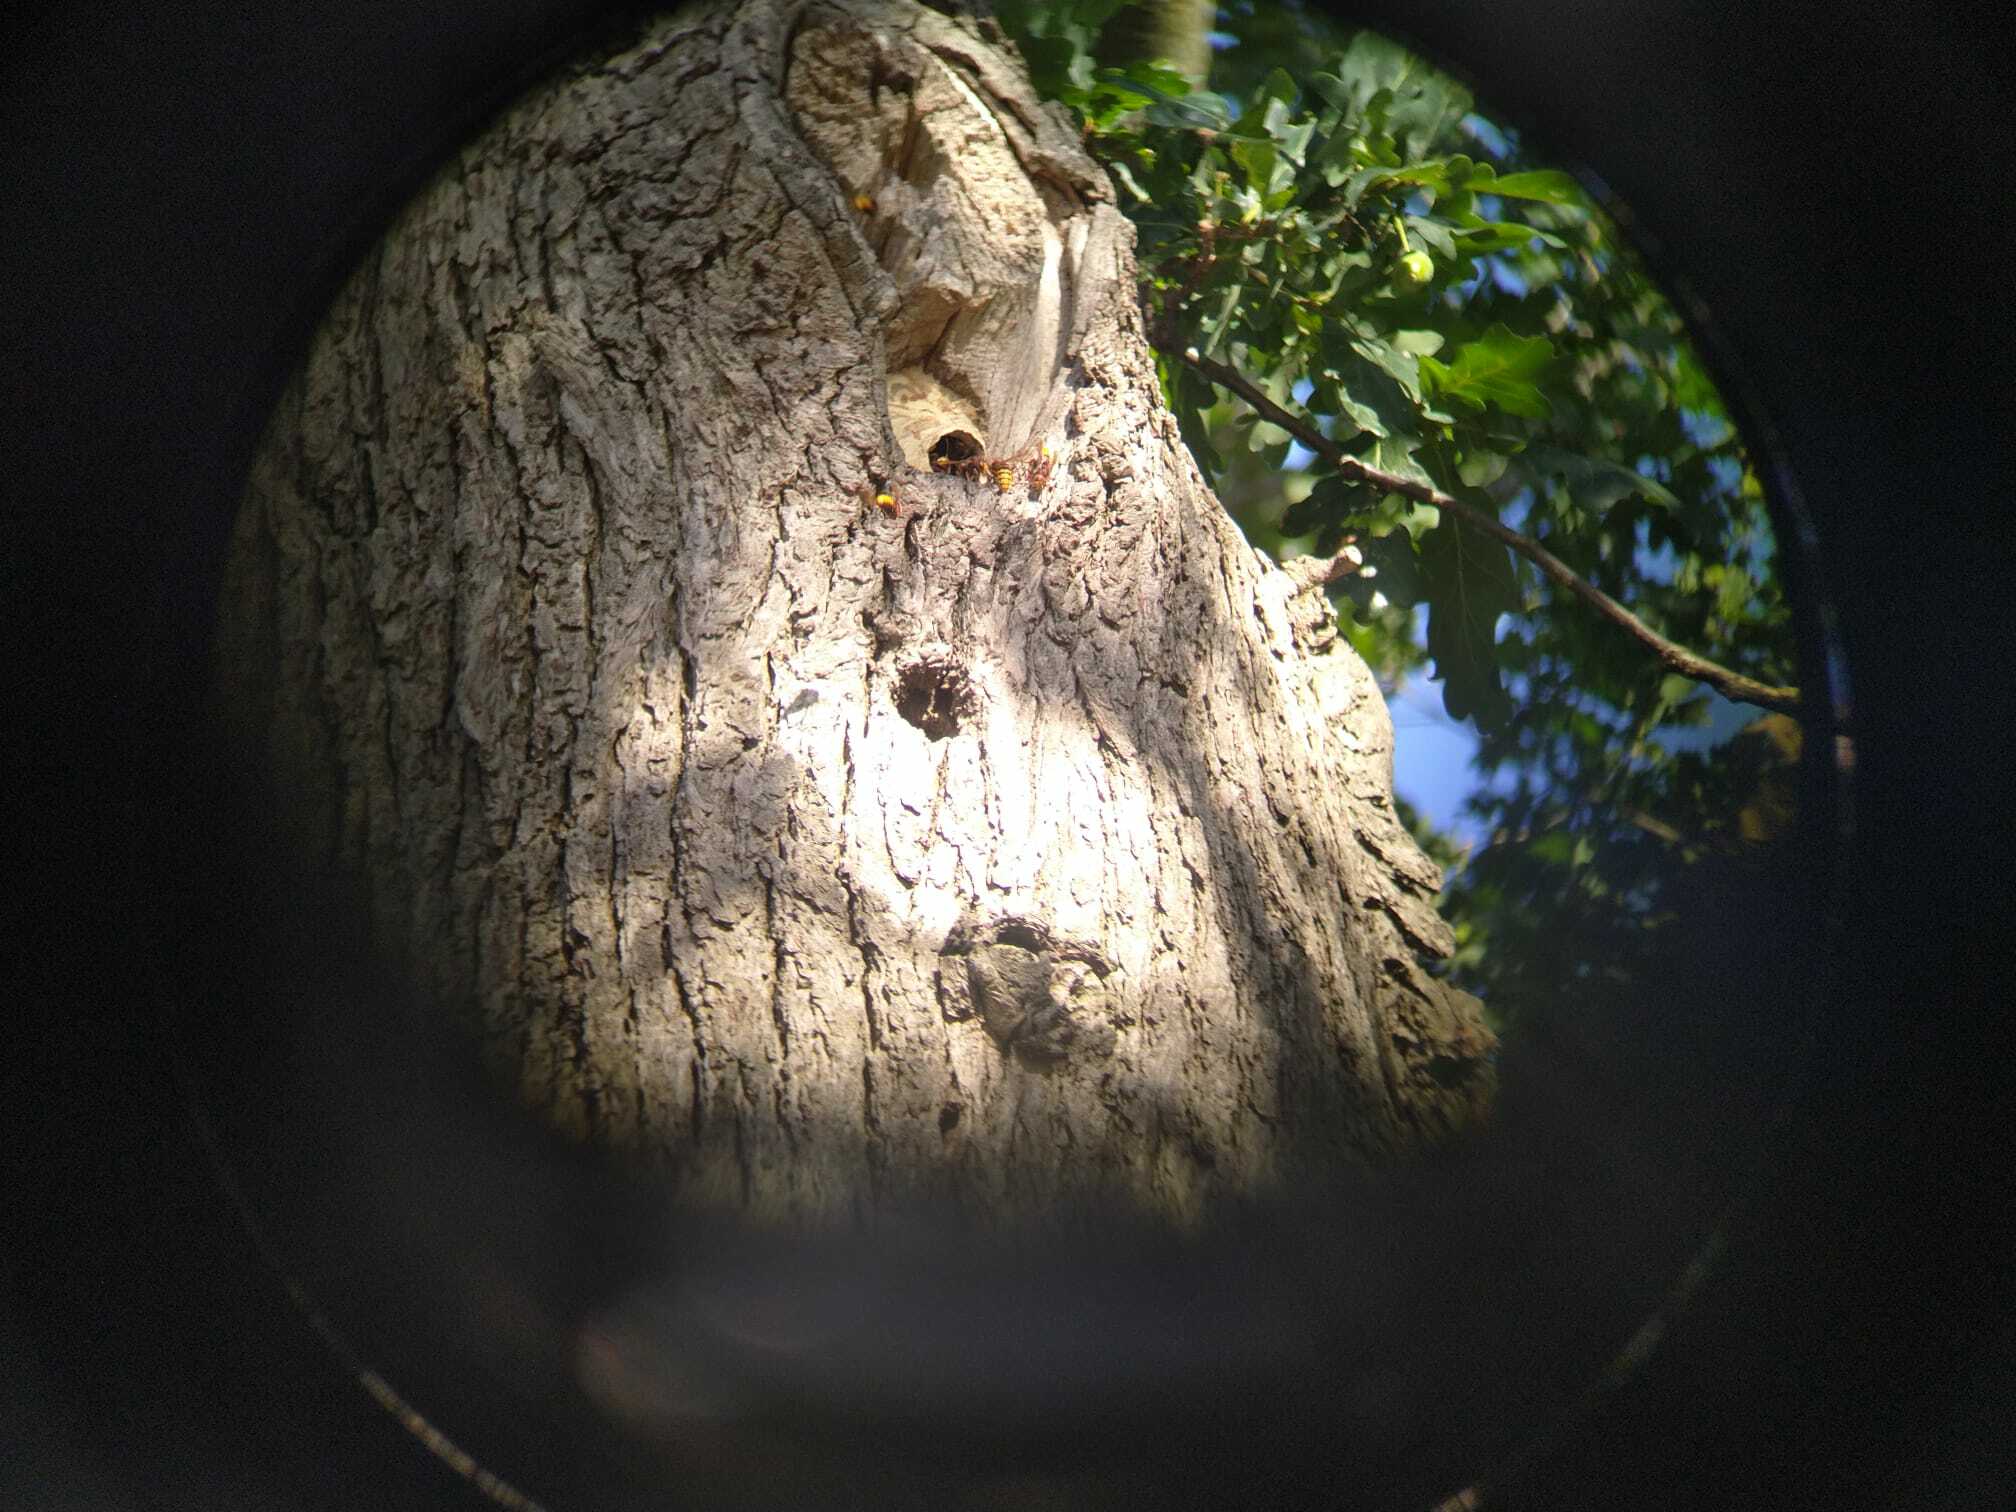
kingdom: Animalia
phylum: Arthropoda
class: Insecta
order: Hymenoptera
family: Vespidae
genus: Vespa
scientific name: Vespa crabro
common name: Hornet
